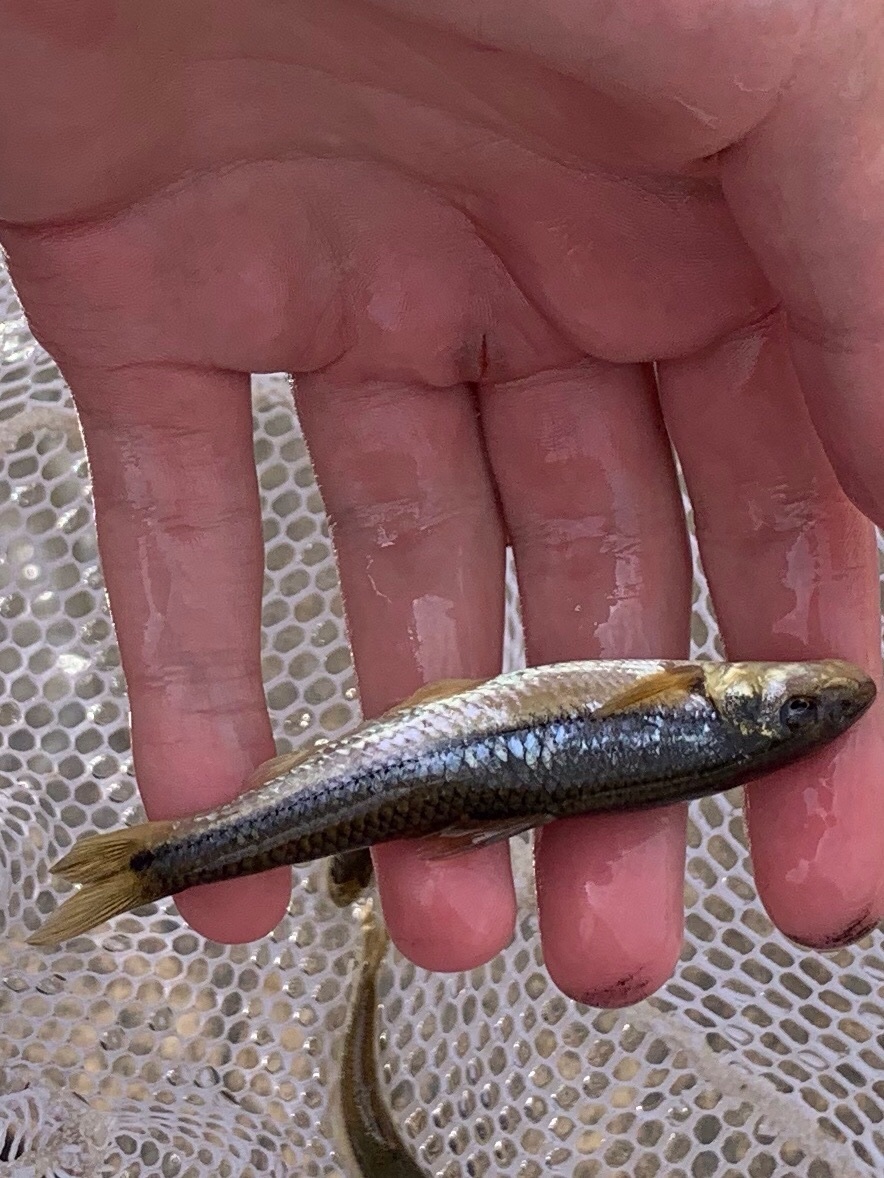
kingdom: Animalia
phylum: Chordata
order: Cypriniformes
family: Cyprinidae
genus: Phenacobius
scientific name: Phenacobius mirabilis
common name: Suckermouth minnow
